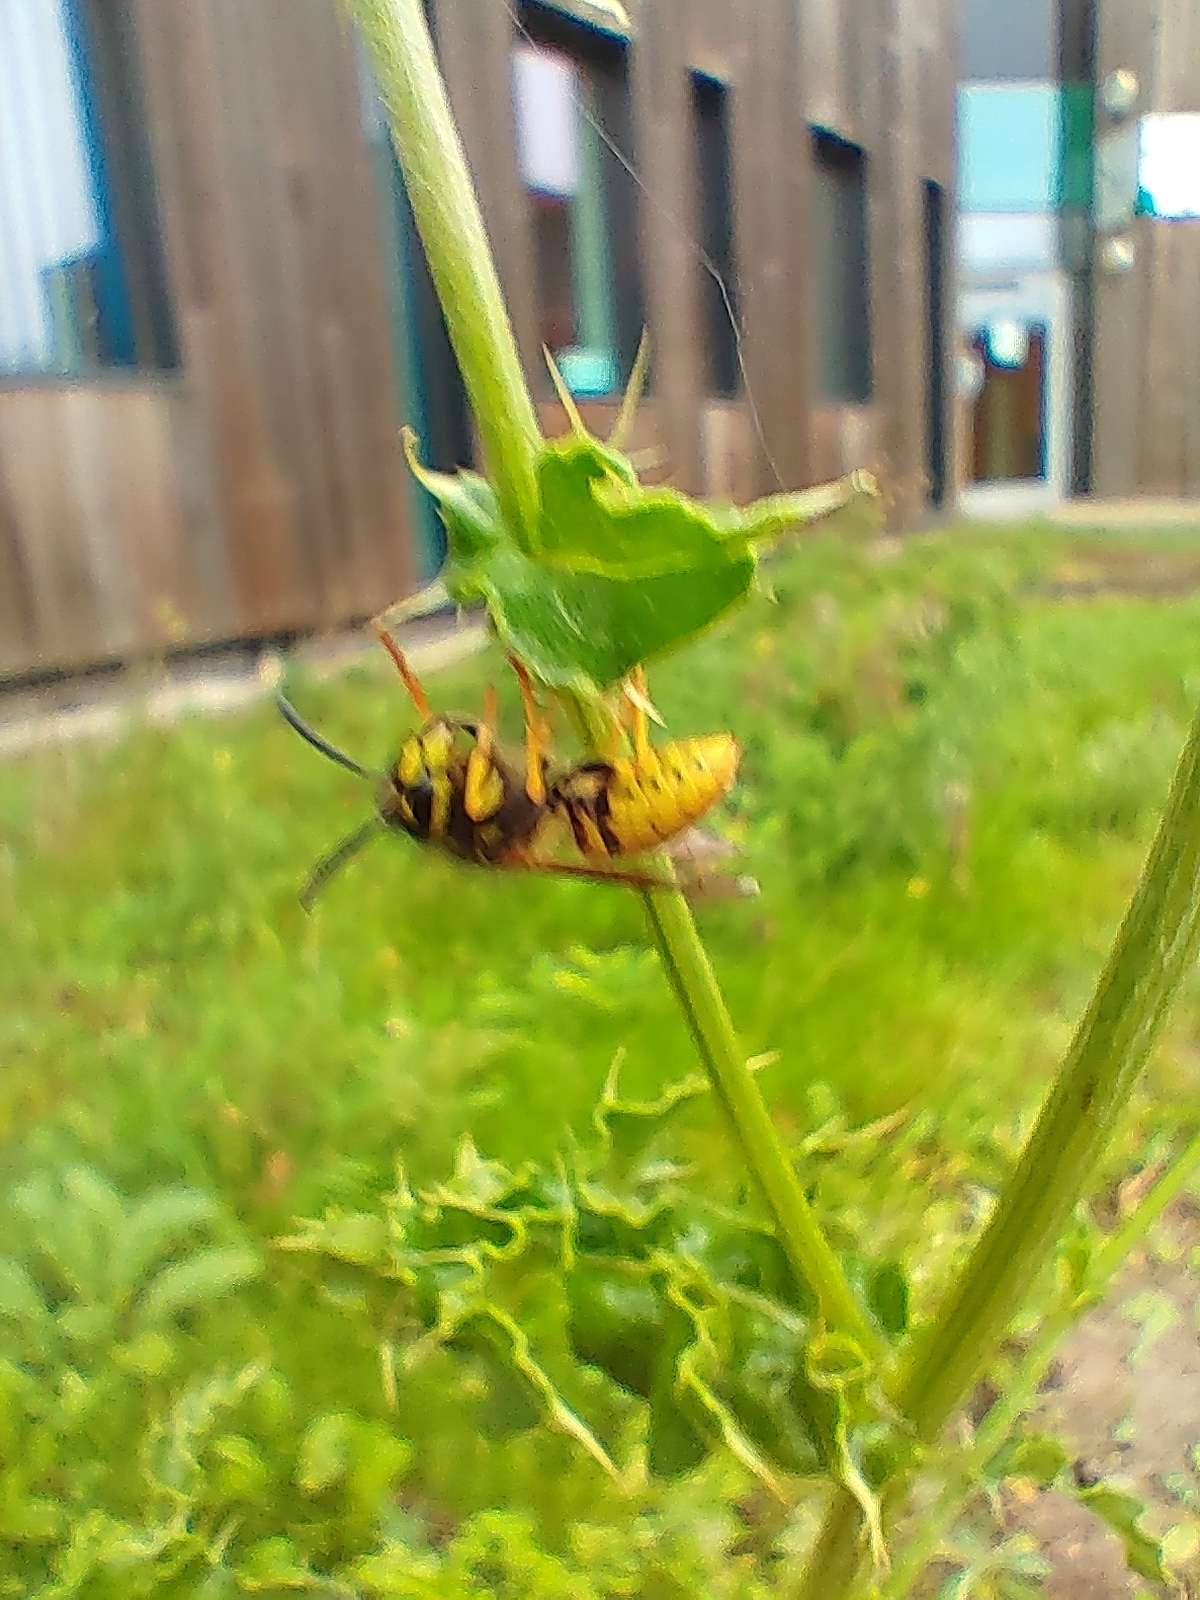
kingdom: Animalia
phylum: Arthropoda
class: Insecta
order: Hymenoptera
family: Vespidae
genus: Vespula
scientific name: Vespula germanica
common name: German wasp
